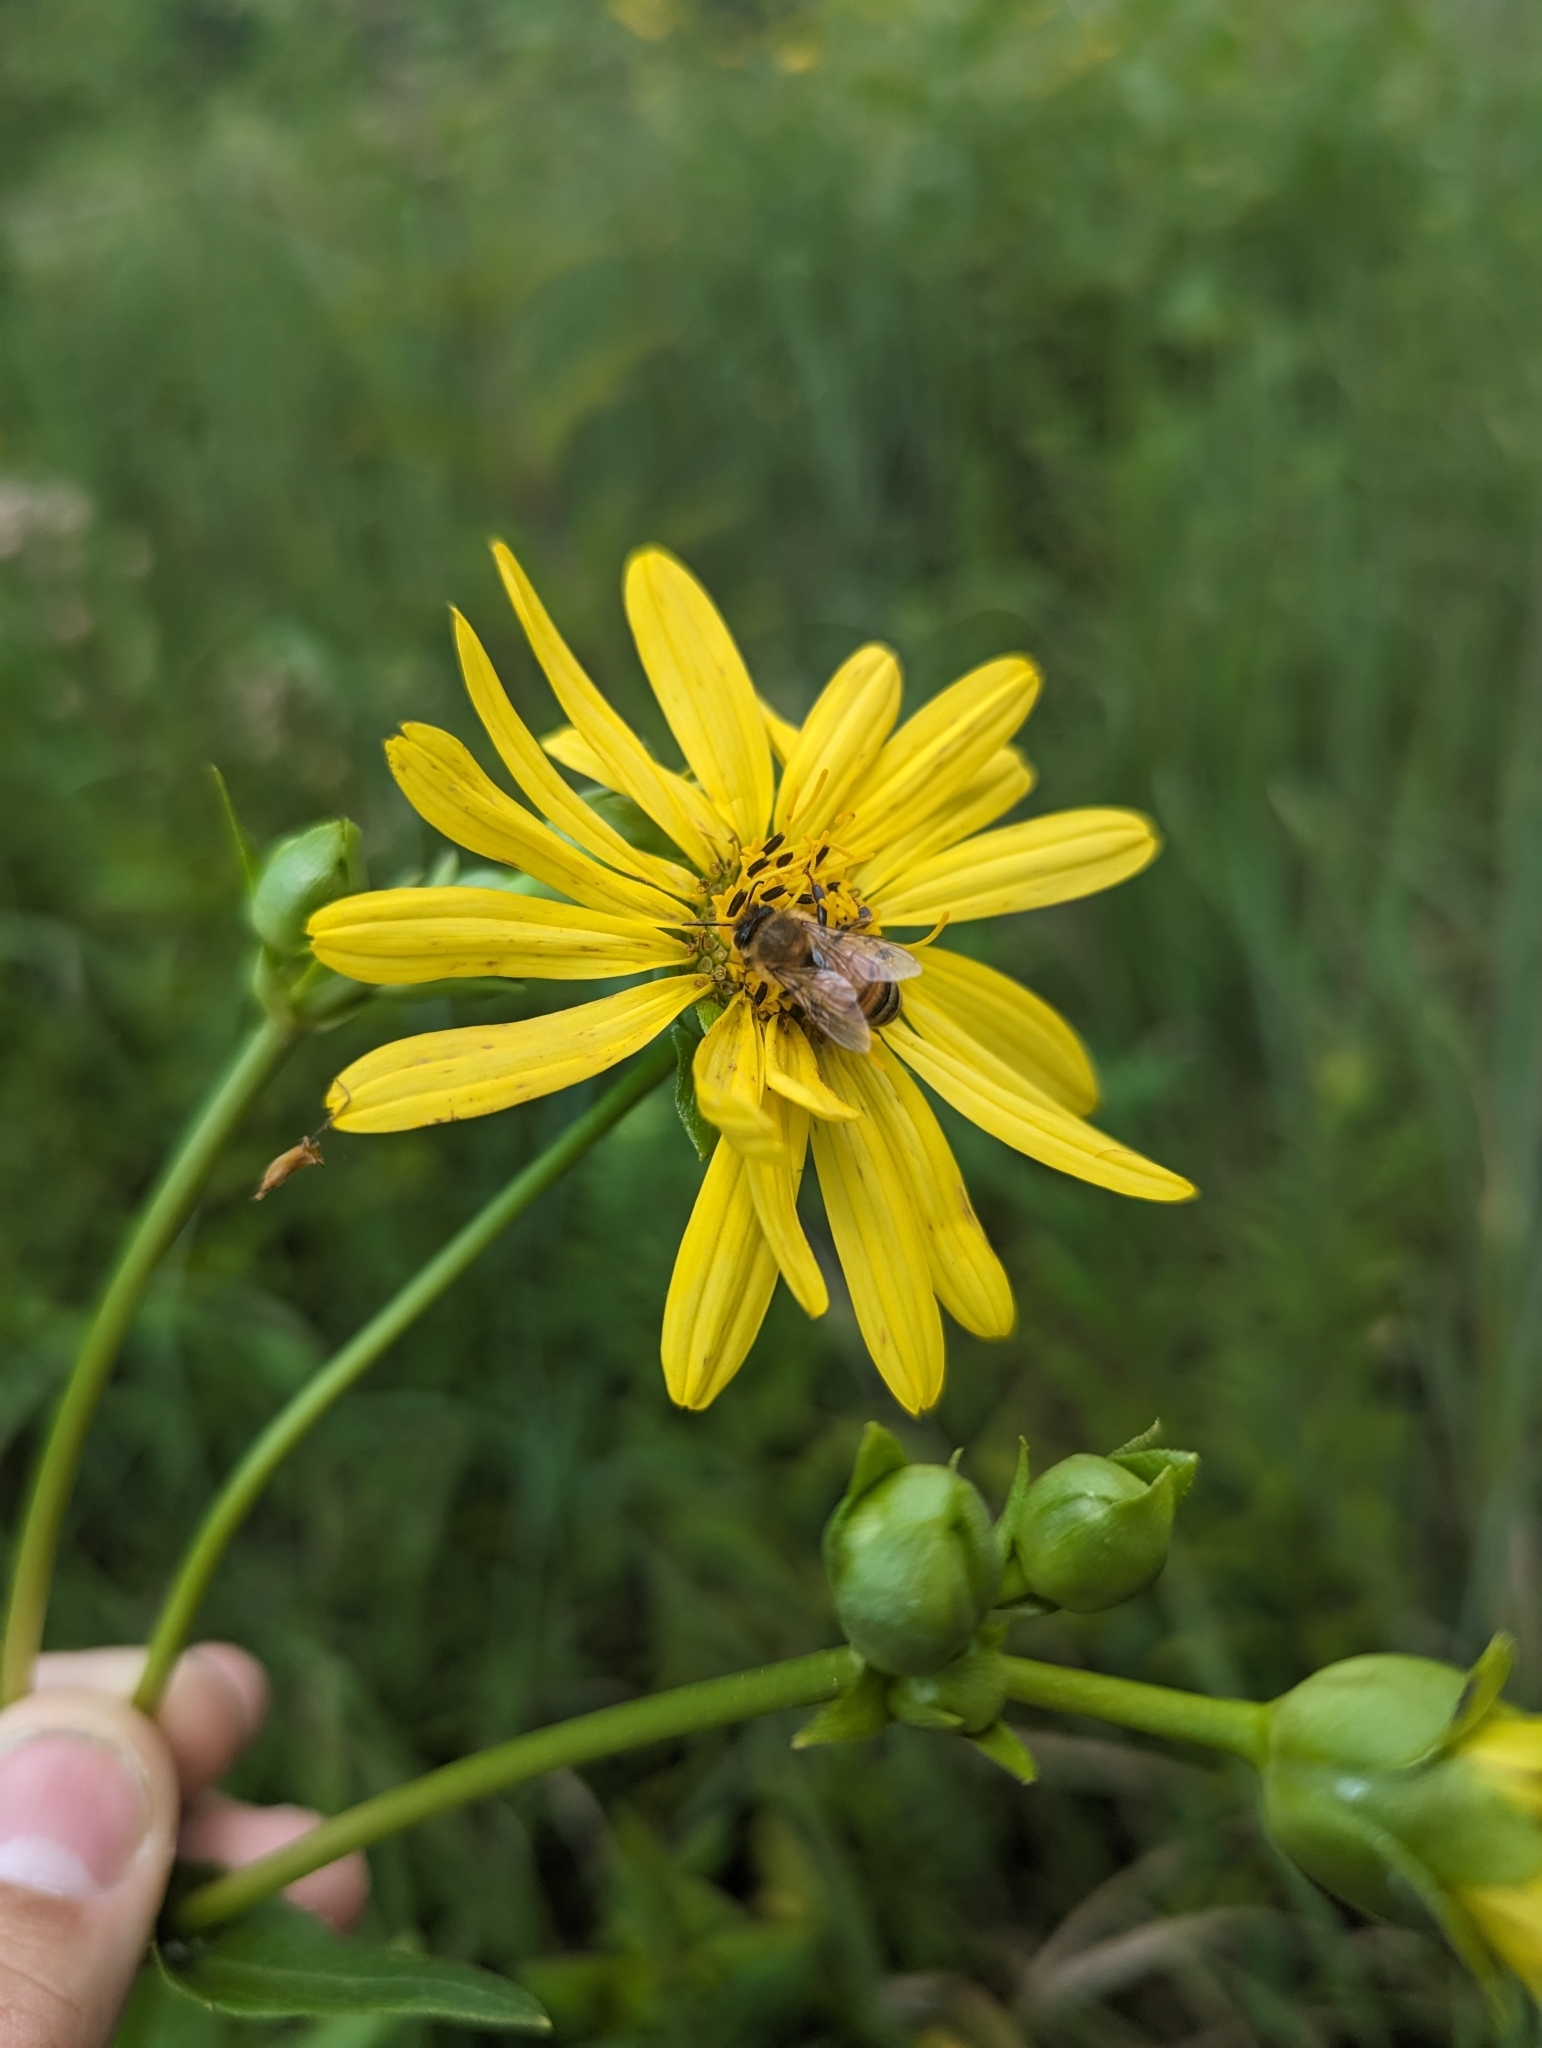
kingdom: Animalia
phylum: Arthropoda
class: Insecta
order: Hymenoptera
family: Apidae
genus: Apis
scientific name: Apis mellifera
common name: Honey bee
